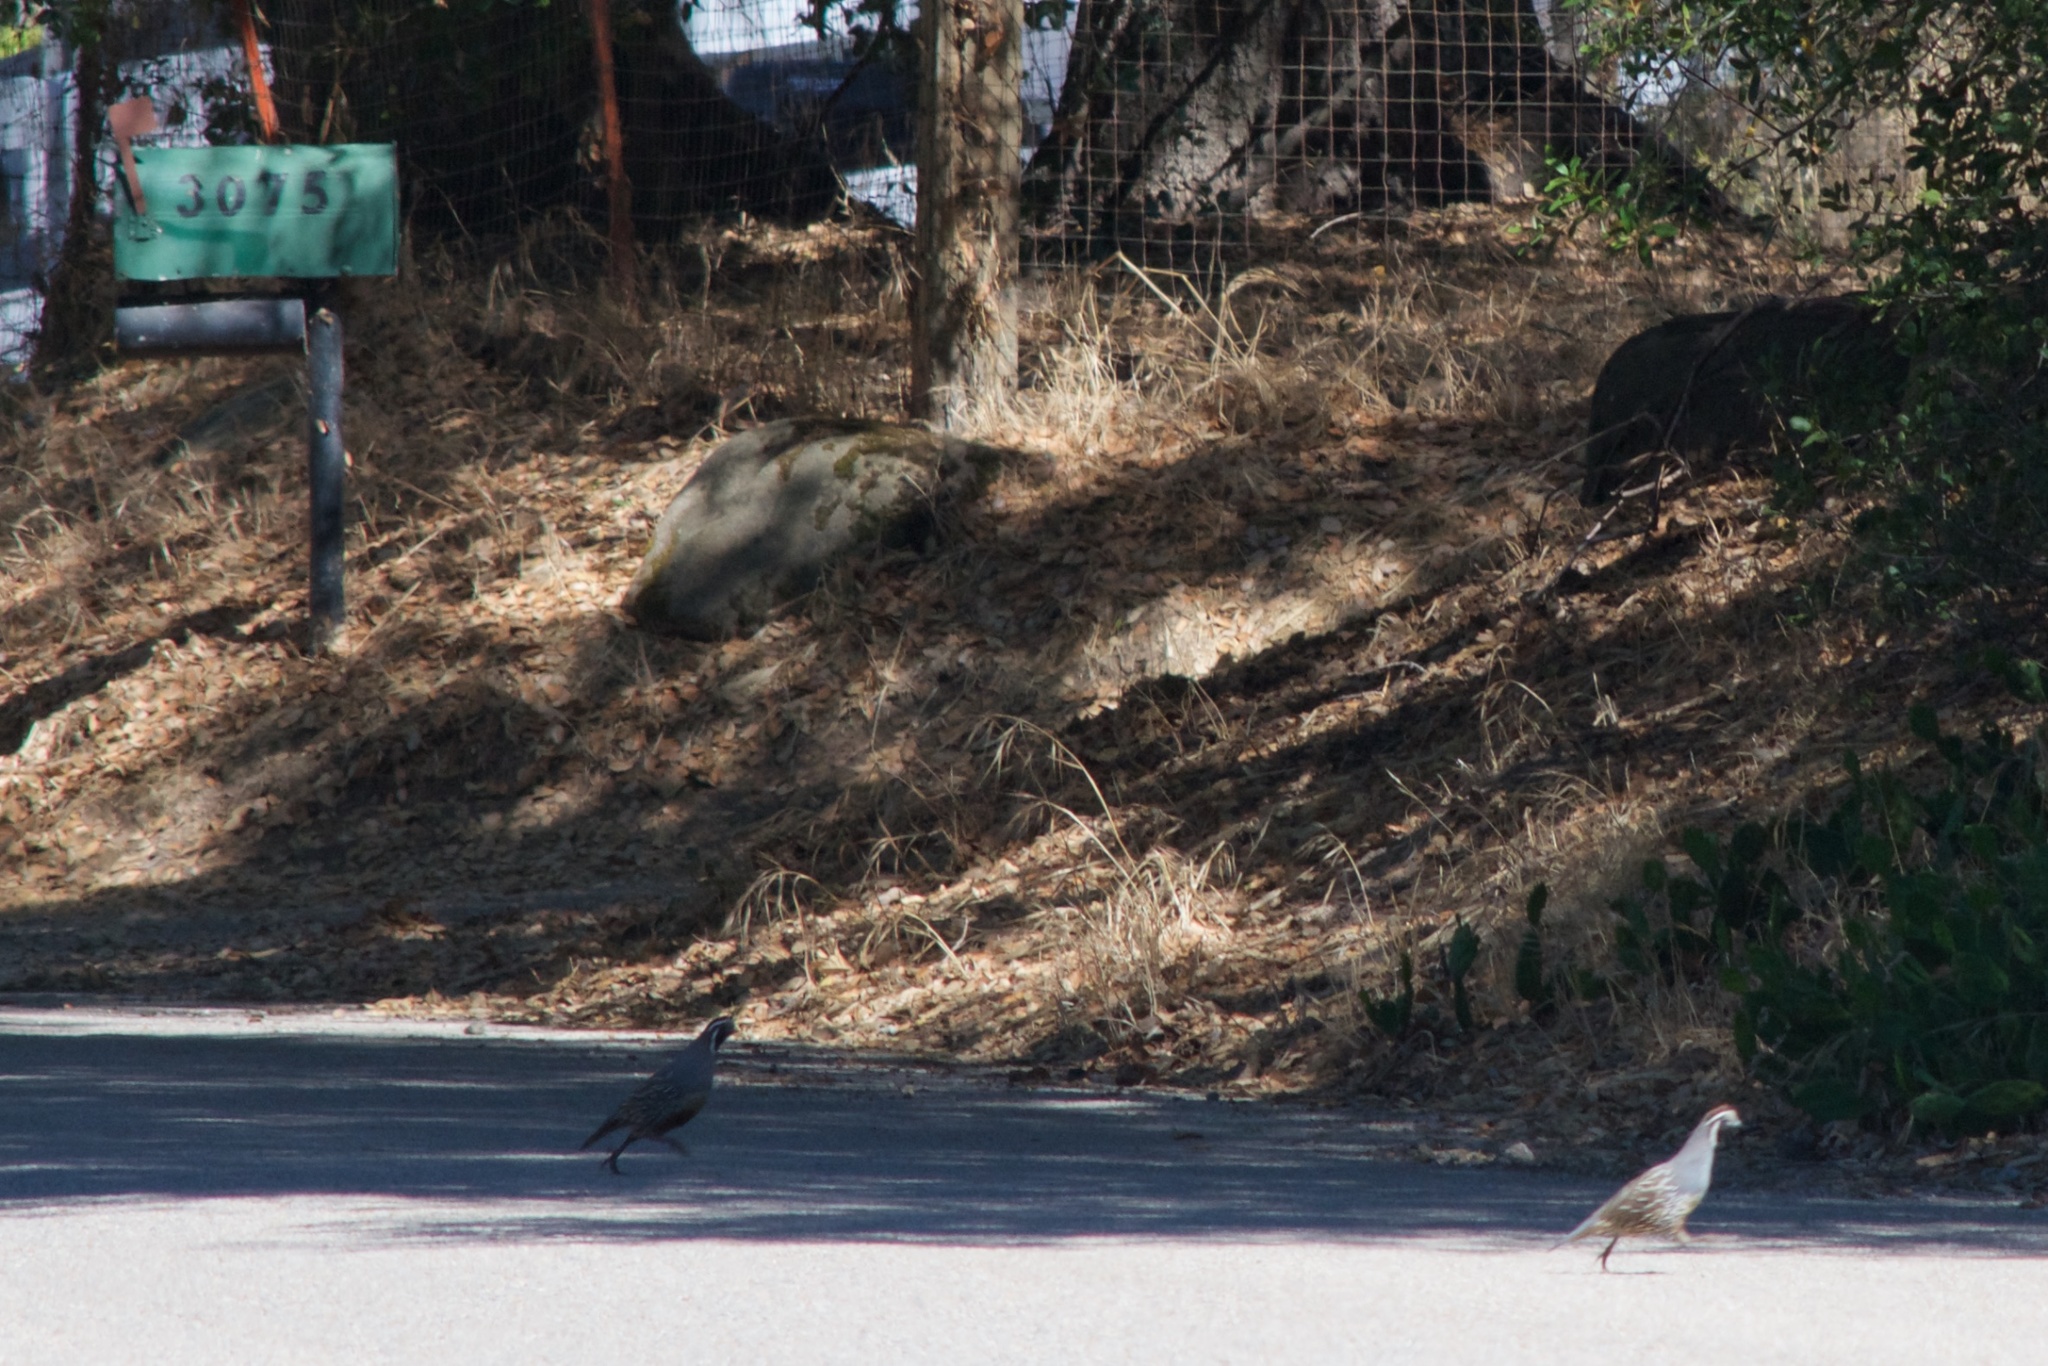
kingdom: Animalia
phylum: Chordata
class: Aves
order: Galliformes
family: Odontophoridae
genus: Callipepla
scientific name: Callipepla californica
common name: California quail
